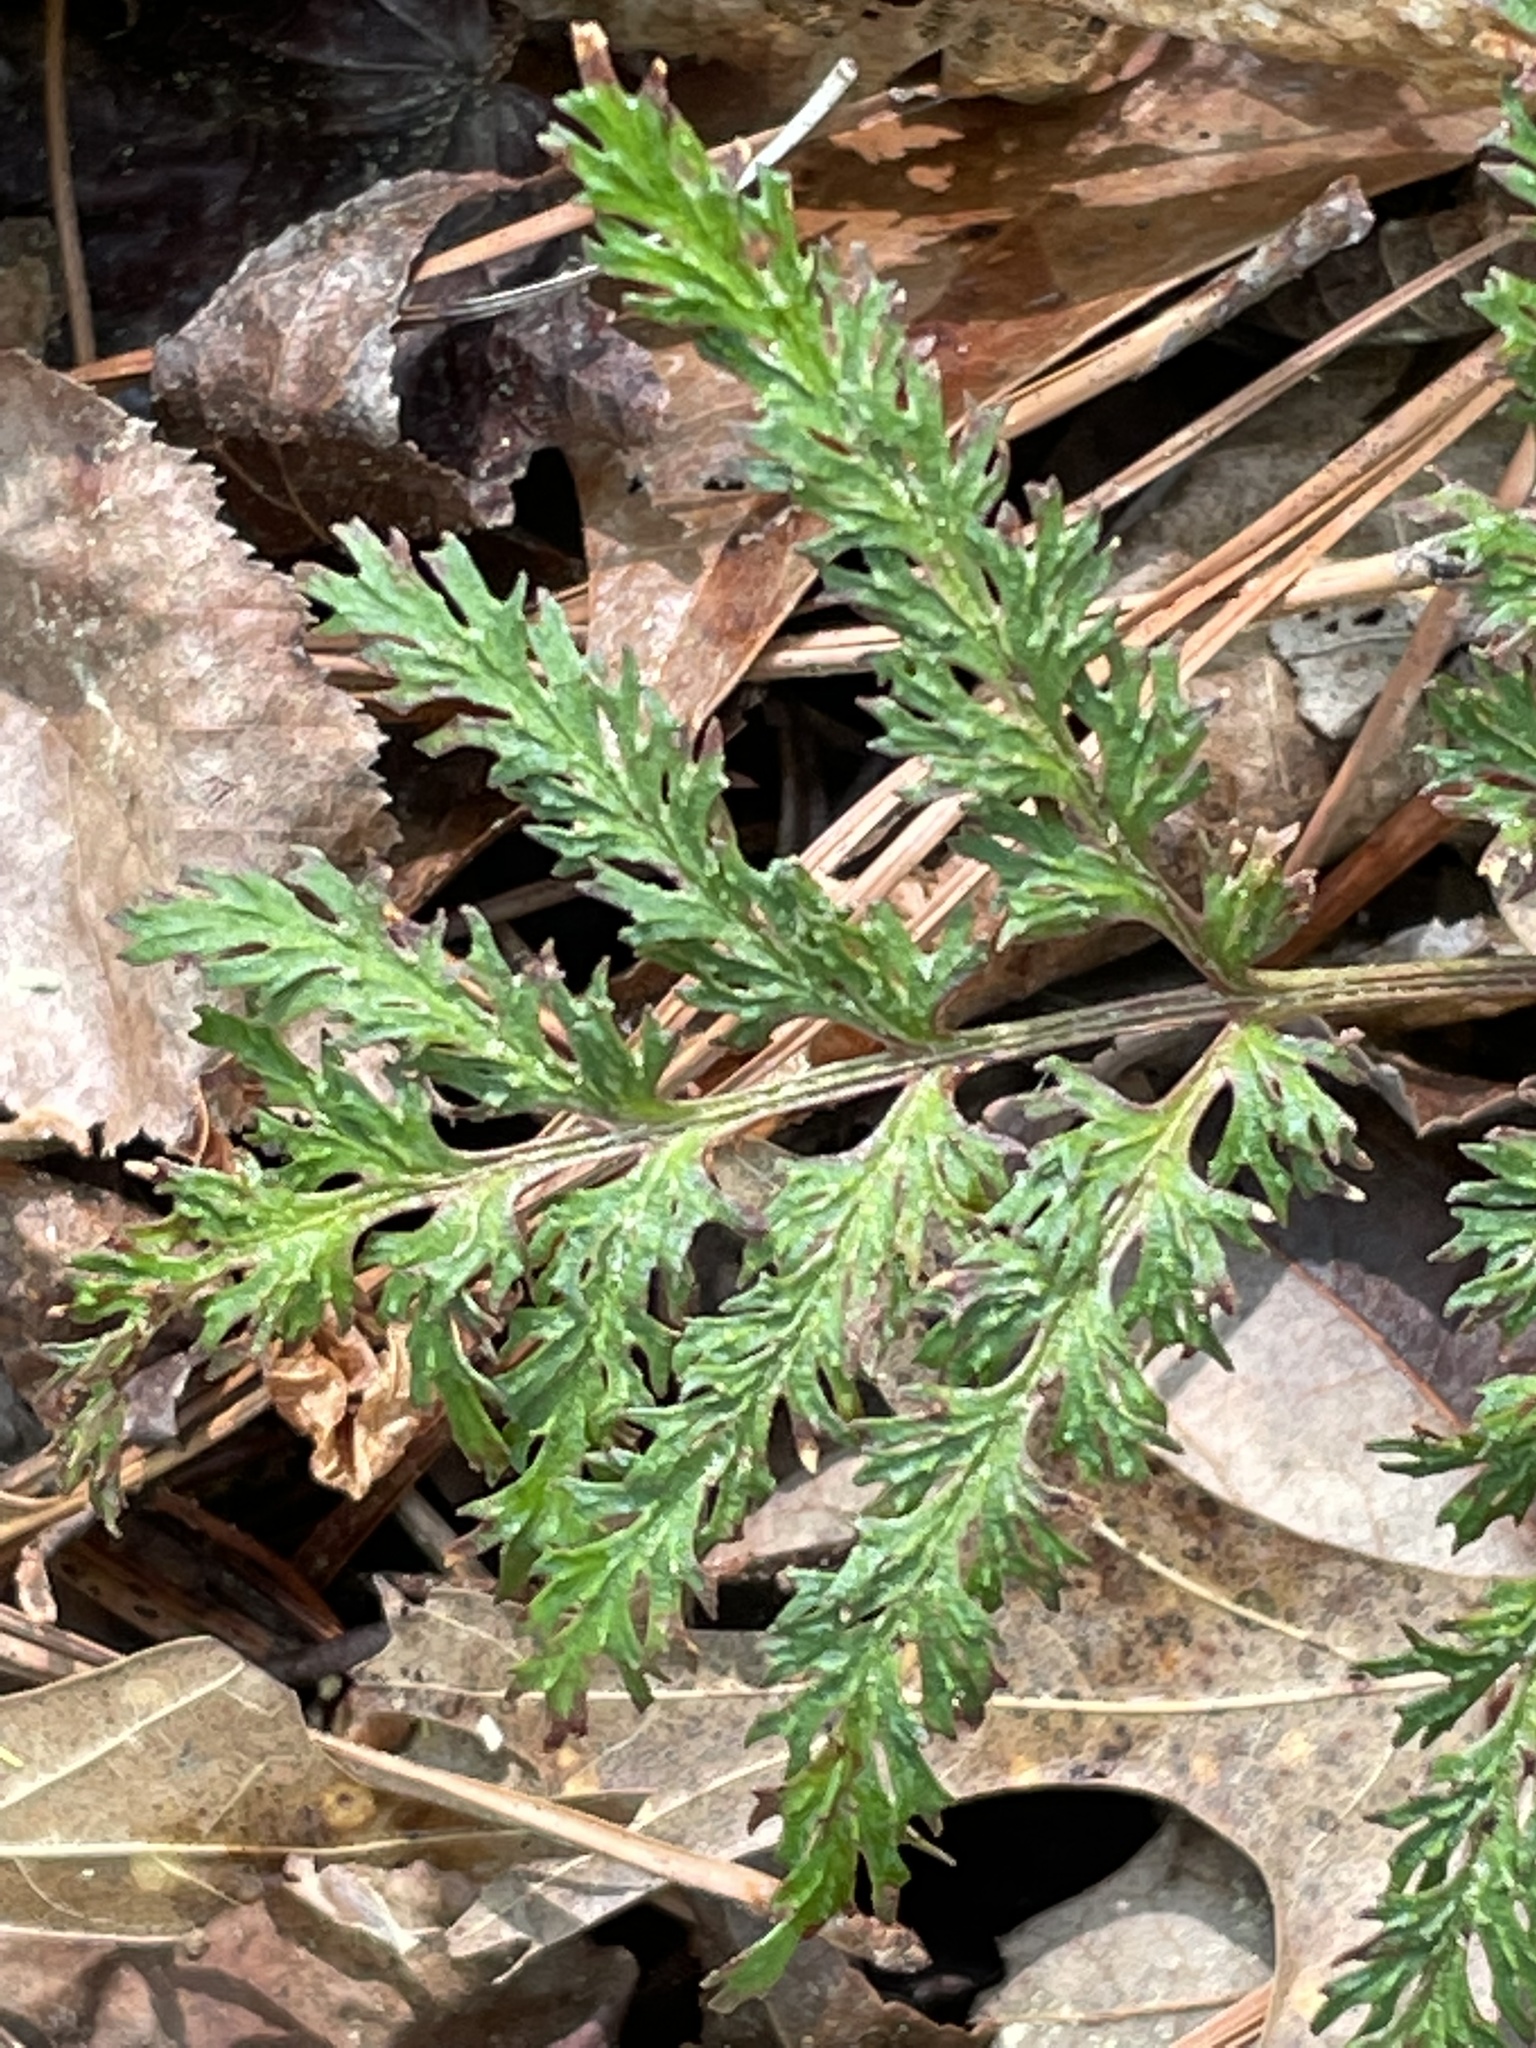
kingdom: Plantae
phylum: Tracheophyta
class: Polypodiopsida
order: Ophioglossales
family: Ophioglossaceae
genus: Sceptridium
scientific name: Sceptridium dissectum
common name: Cut-leaved grapefern
